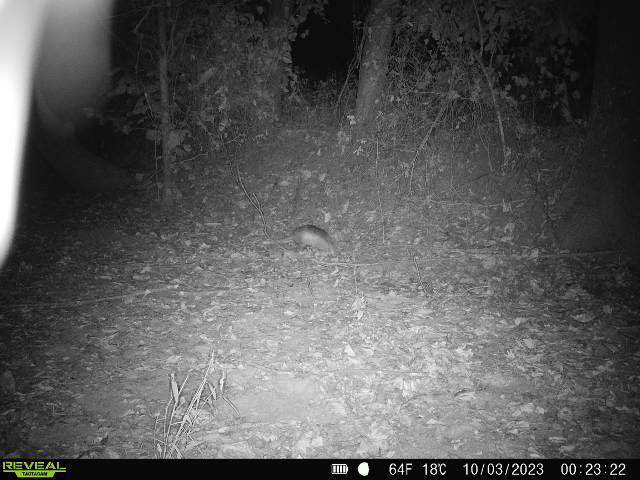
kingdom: Animalia
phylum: Chordata
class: Mammalia
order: Cingulata
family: Dasypodidae
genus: Dasypus
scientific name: Dasypus novemcinctus
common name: Nine-banded armadillo
